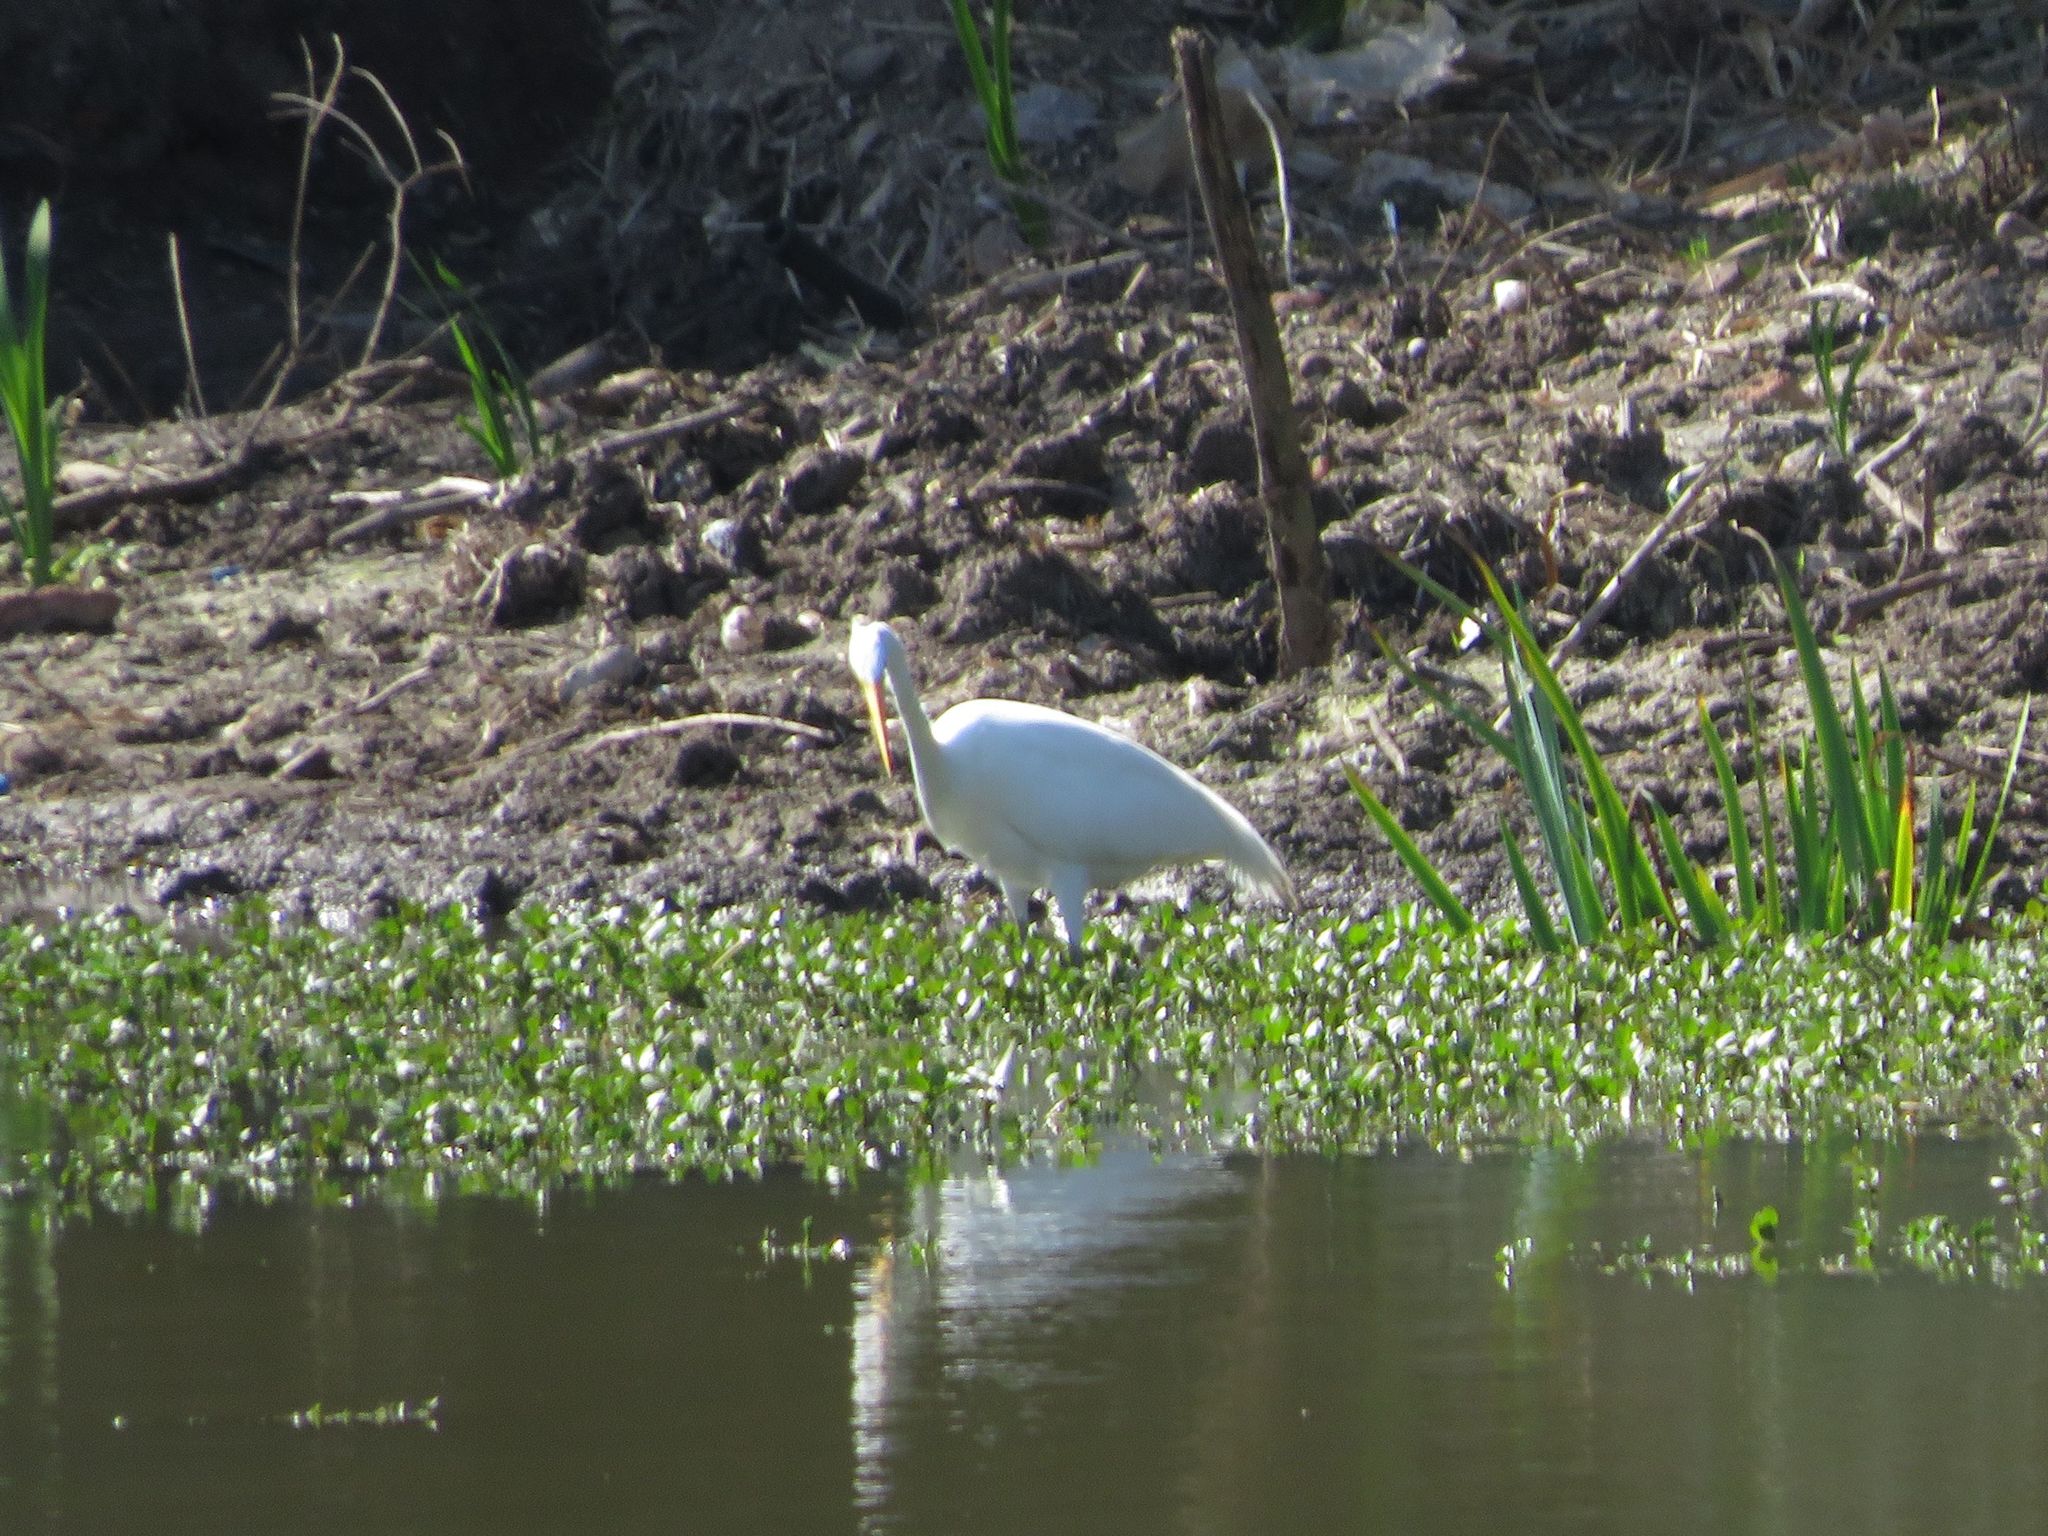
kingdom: Animalia
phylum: Chordata
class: Aves
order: Pelecaniformes
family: Ardeidae
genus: Ardea
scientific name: Ardea alba
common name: Great egret
